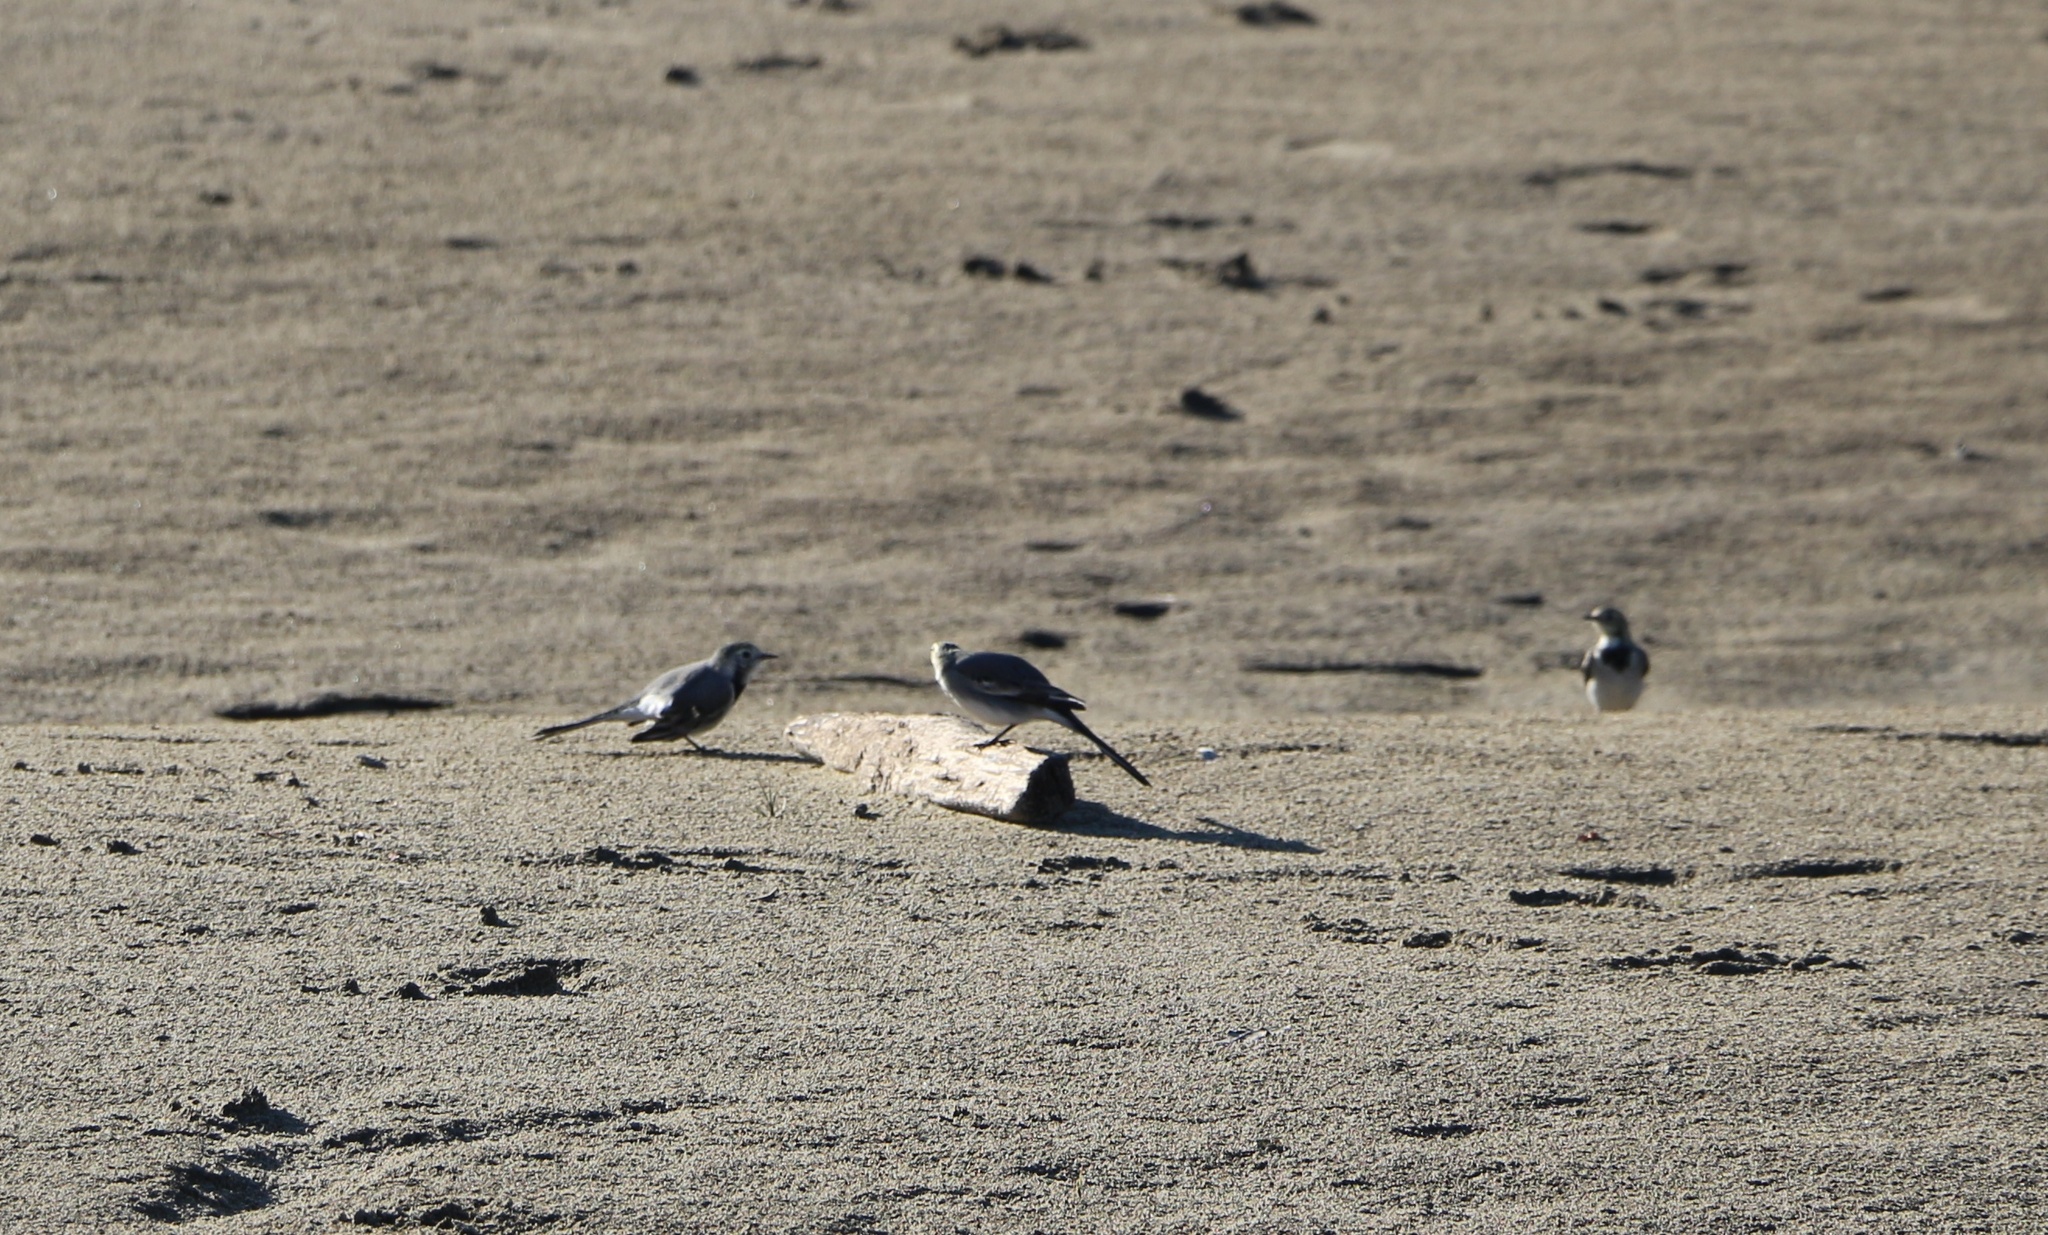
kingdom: Animalia
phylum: Chordata
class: Aves
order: Passeriformes
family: Motacillidae
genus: Motacilla
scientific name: Motacilla alba
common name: White wagtail
